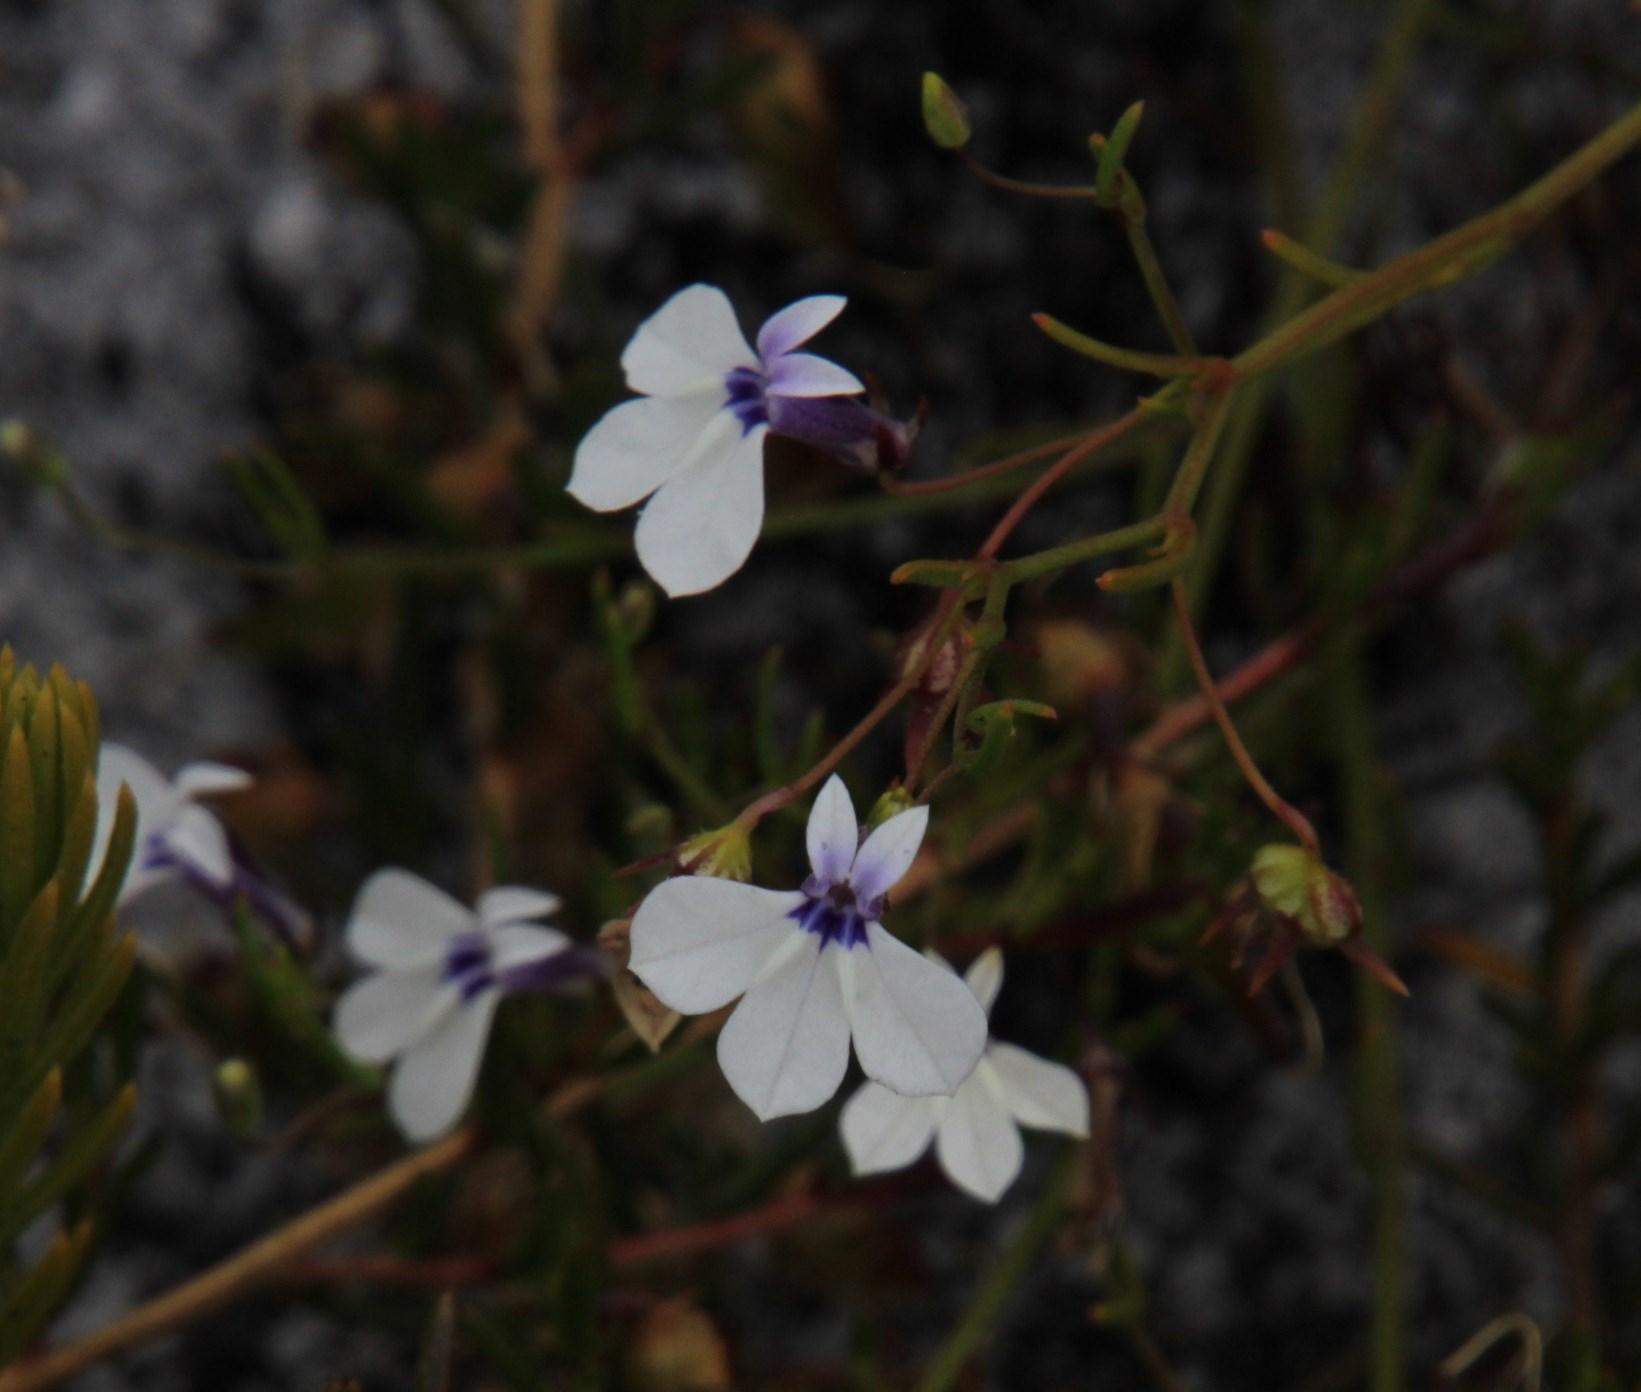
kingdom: Plantae
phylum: Tracheophyta
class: Magnoliopsida
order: Asterales
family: Campanulaceae
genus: Lobelia
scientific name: Lobelia setacea
